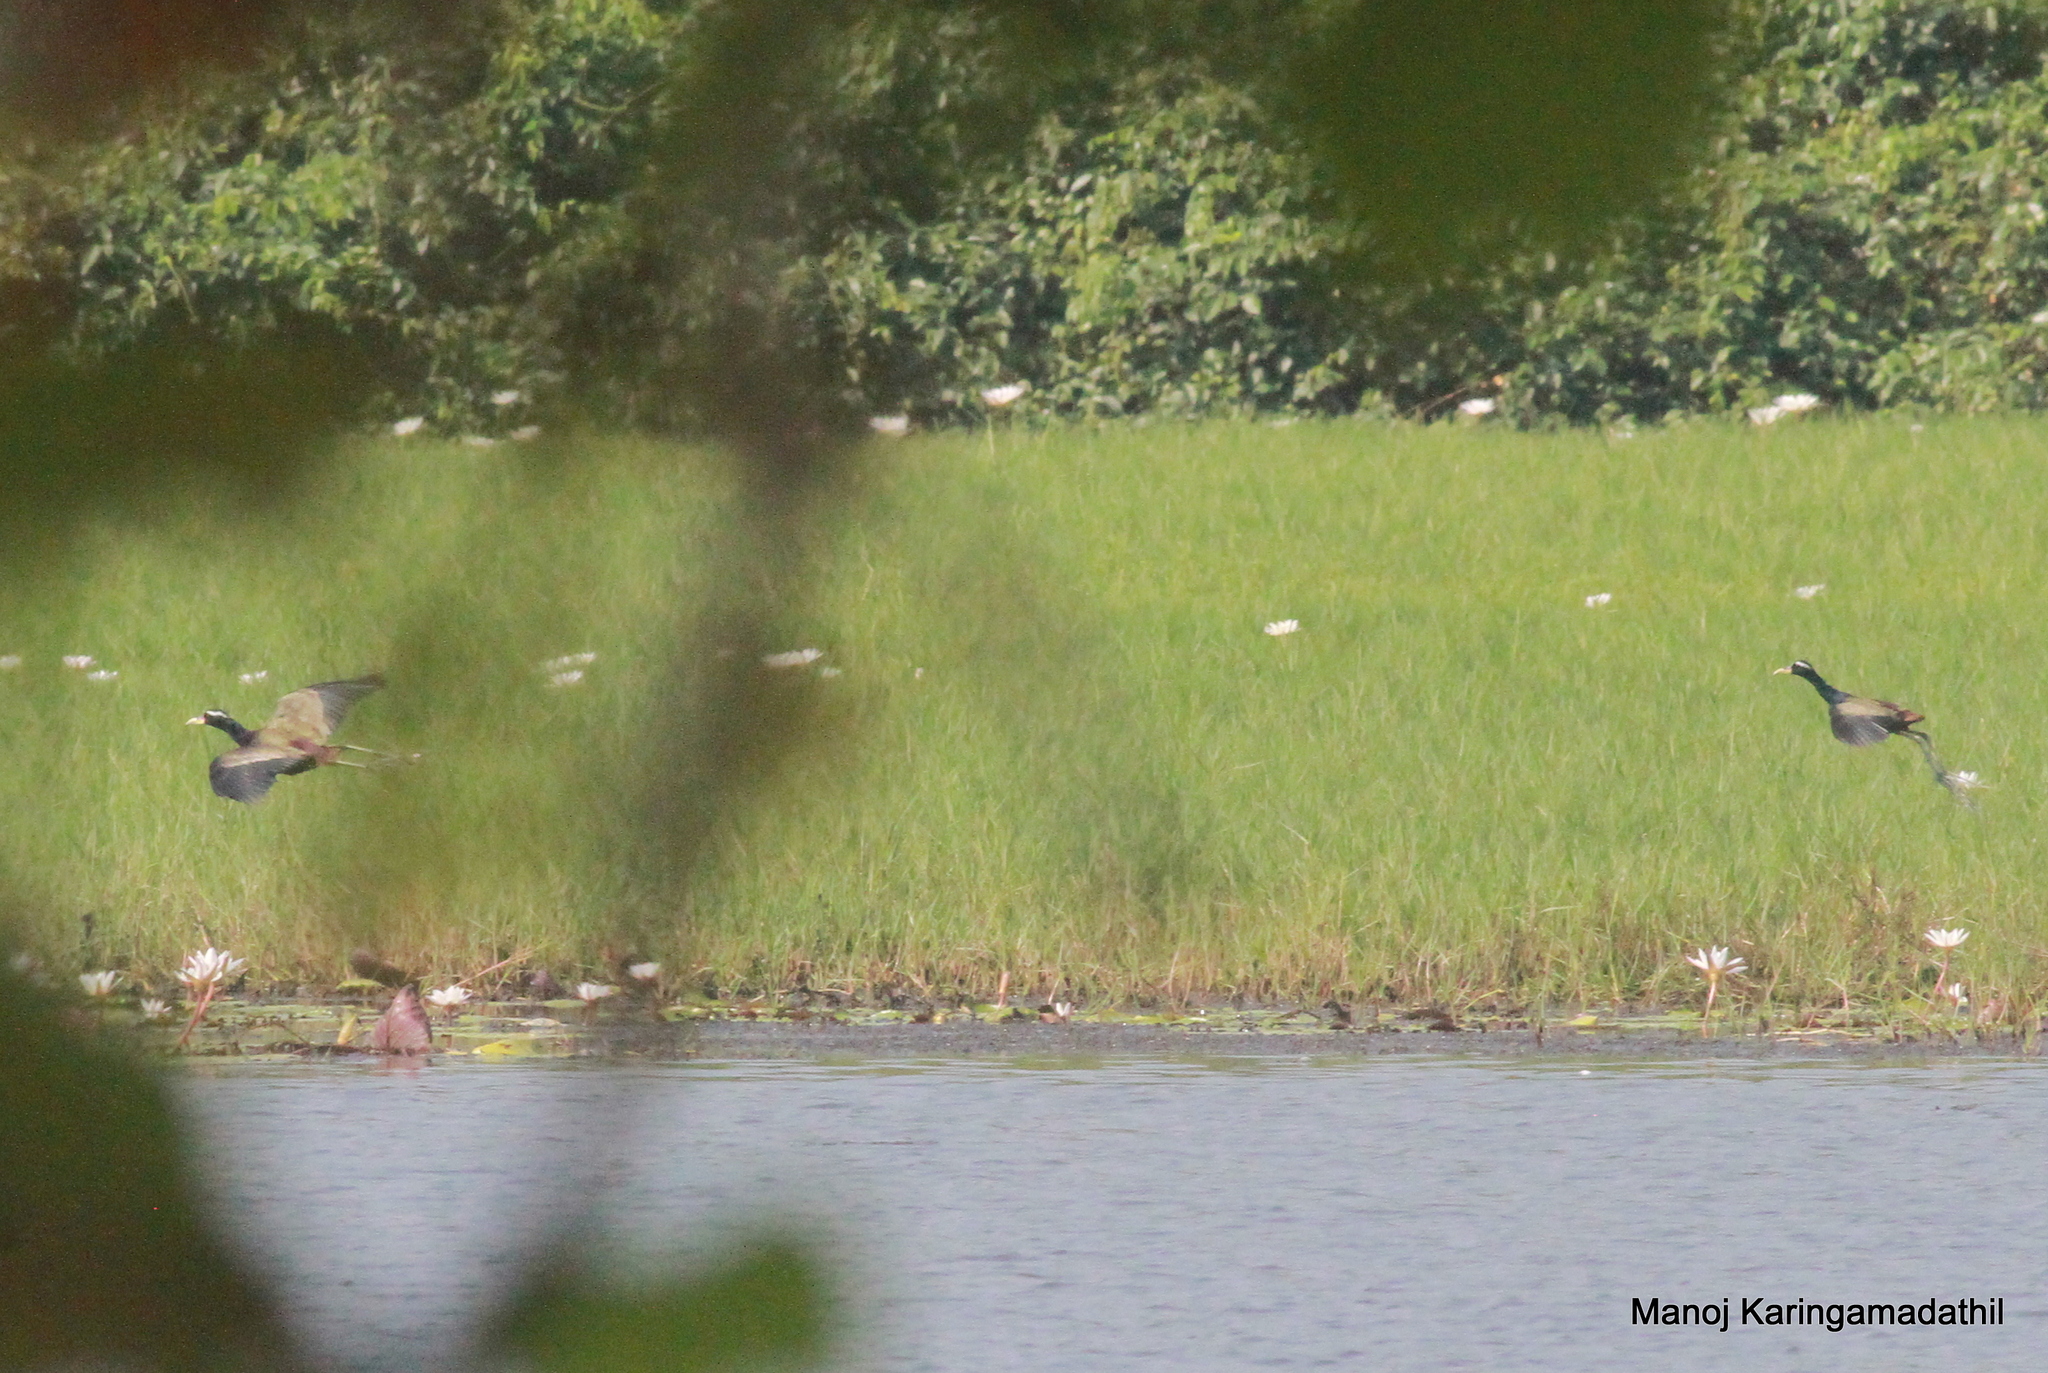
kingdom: Animalia
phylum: Chordata
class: Aves
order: Charadriiformes
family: Jacanidae
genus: Metopidius
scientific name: Metopidius indicus
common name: Bronze-winged jacana
